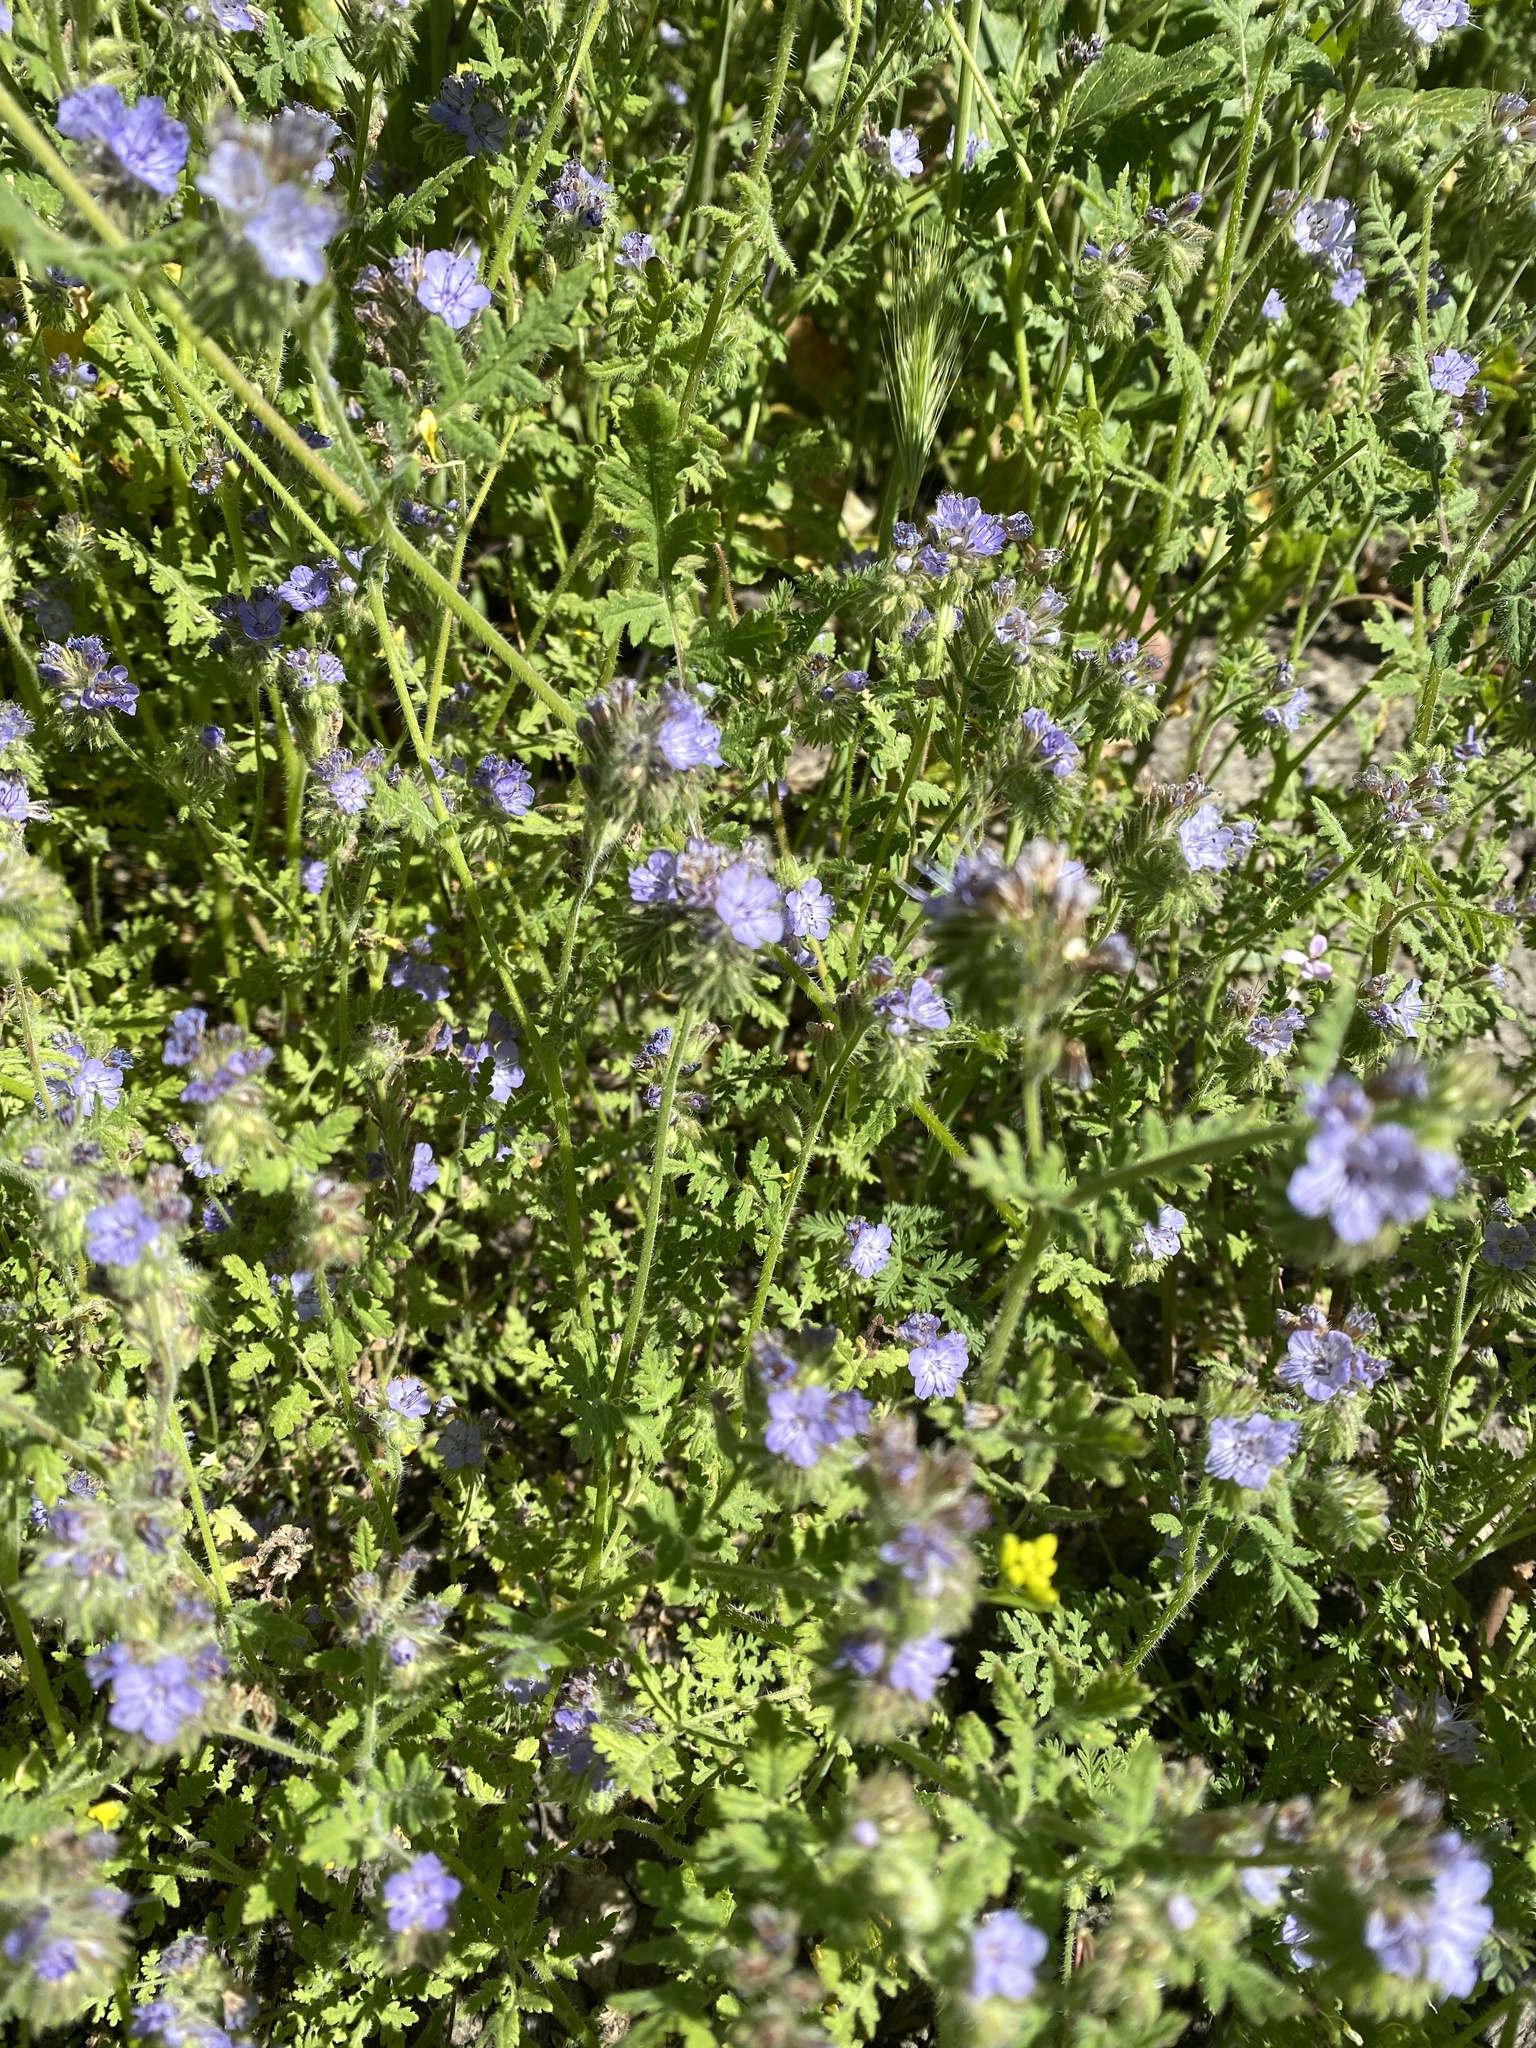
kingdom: Plantae
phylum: Tracheophyta
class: Magnoliopsida
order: Boraginales
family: Hydrophyllaceae
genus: Phacelia
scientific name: Phacelia distans
